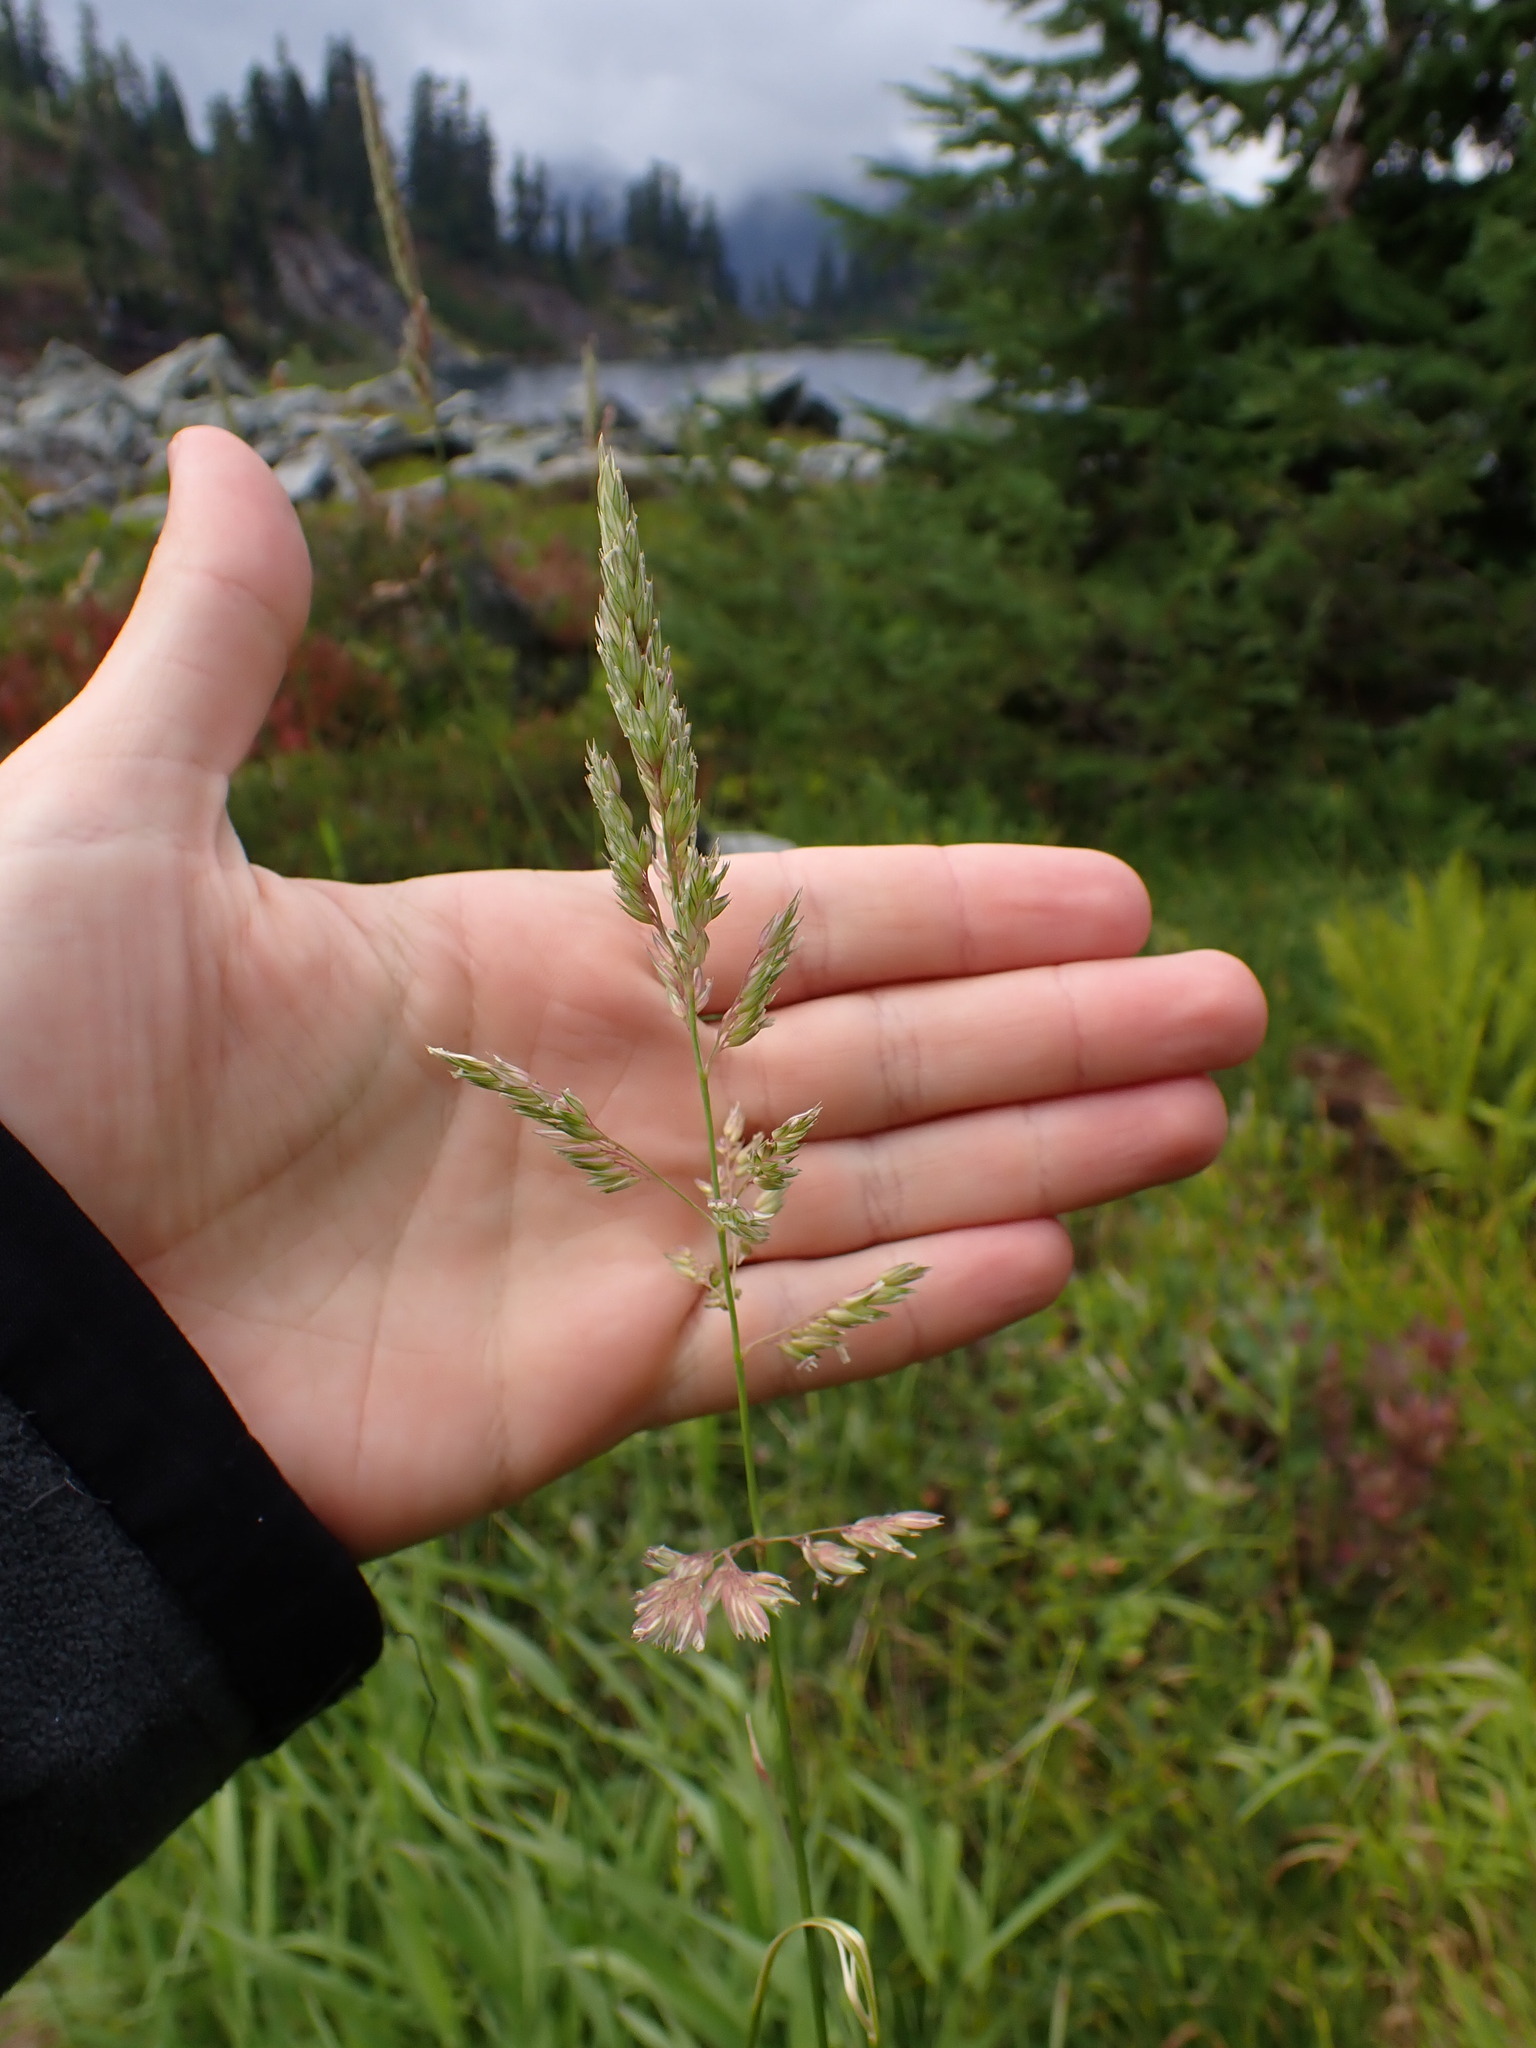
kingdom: Plantae
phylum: Tracheophyta
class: Liliopsida
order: Poales
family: Poaceae
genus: Phalaris
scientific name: Phalaris arundinacea
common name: Reed canary-grass
